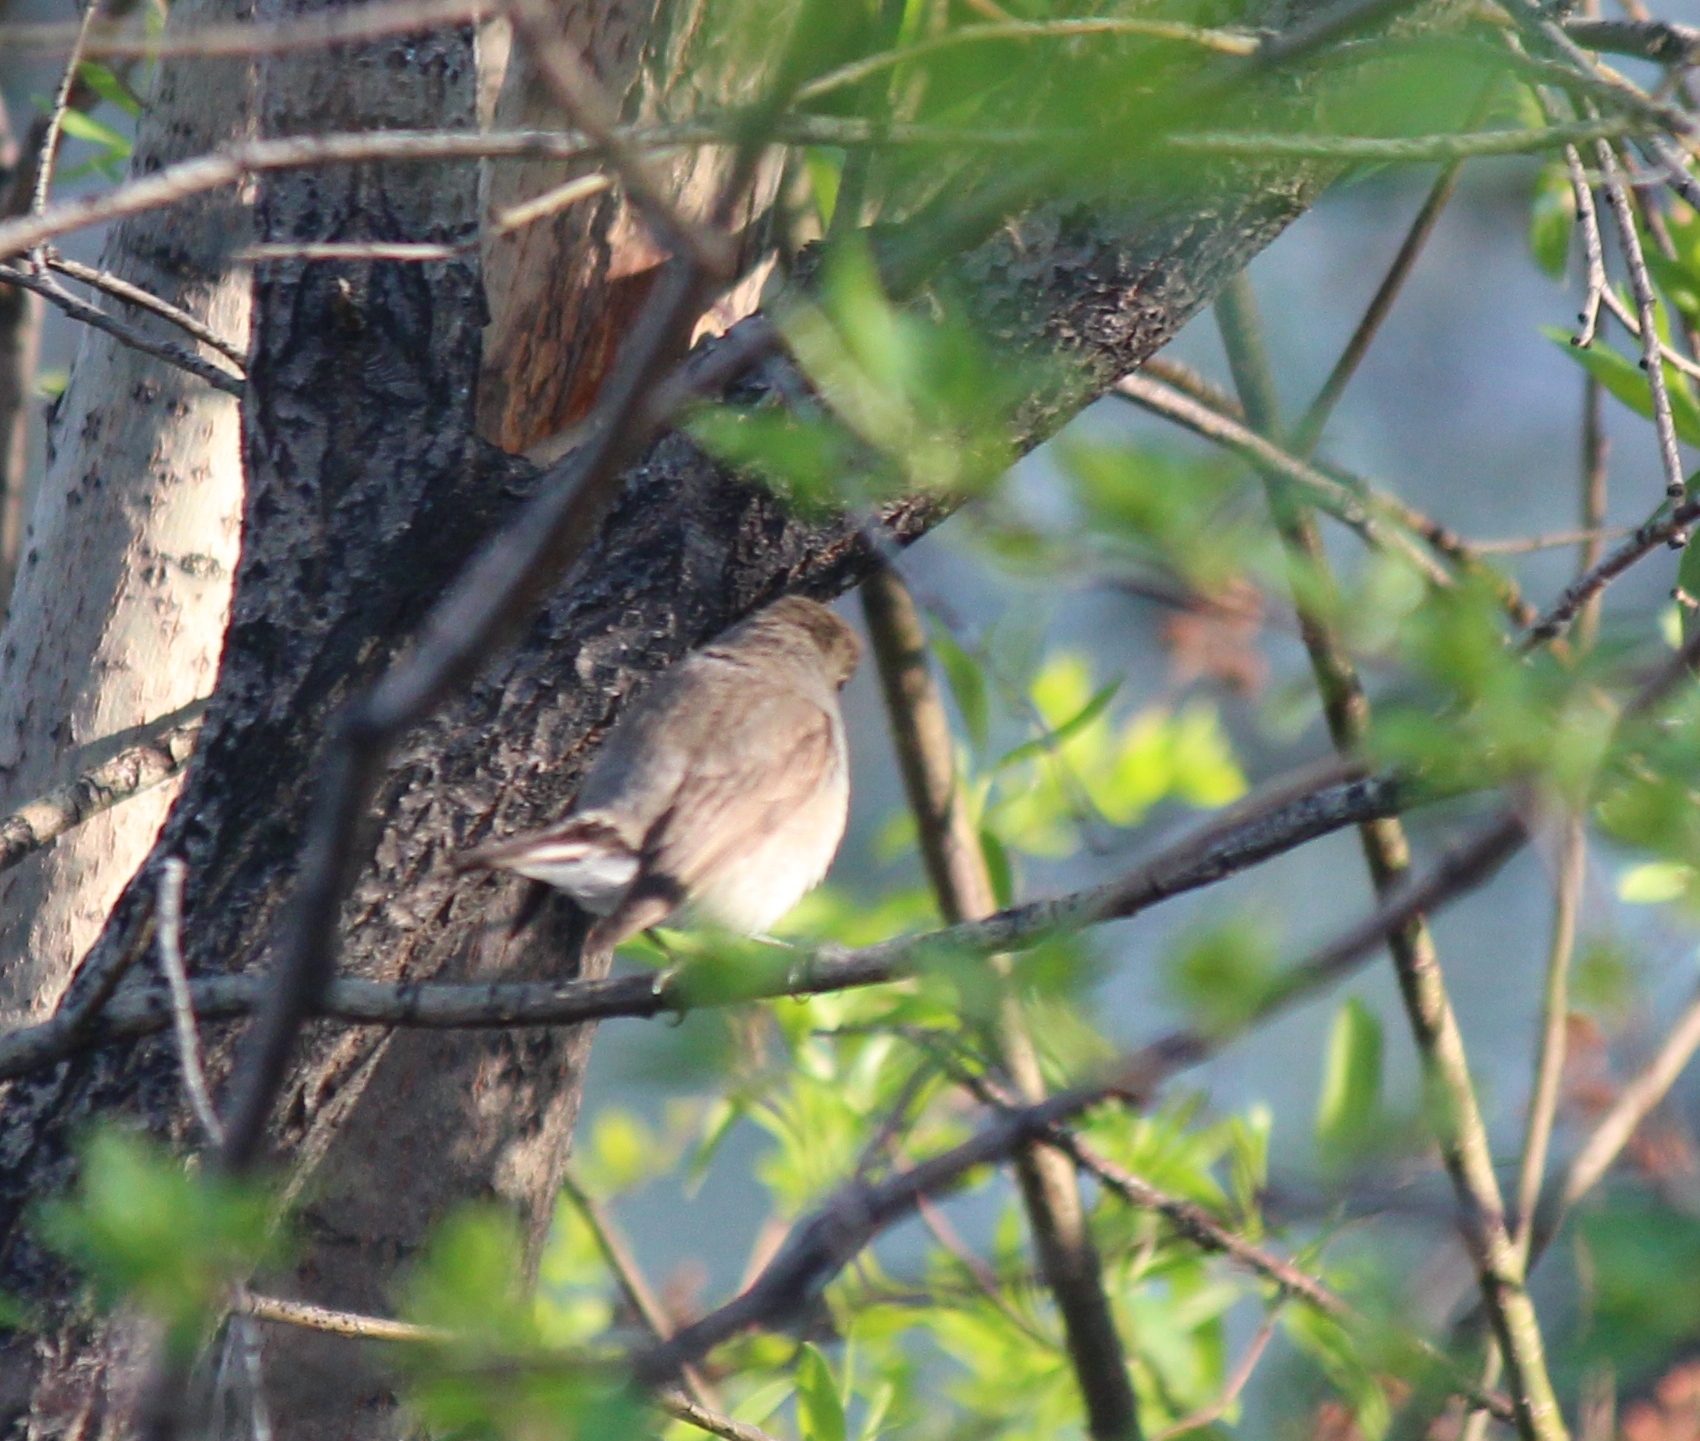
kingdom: Animalia
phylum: Chordata
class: Aves
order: Passeriformes
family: Muscicapidae
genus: Ficedula
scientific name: Ficedula albicilla
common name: Taiga flycatcher
